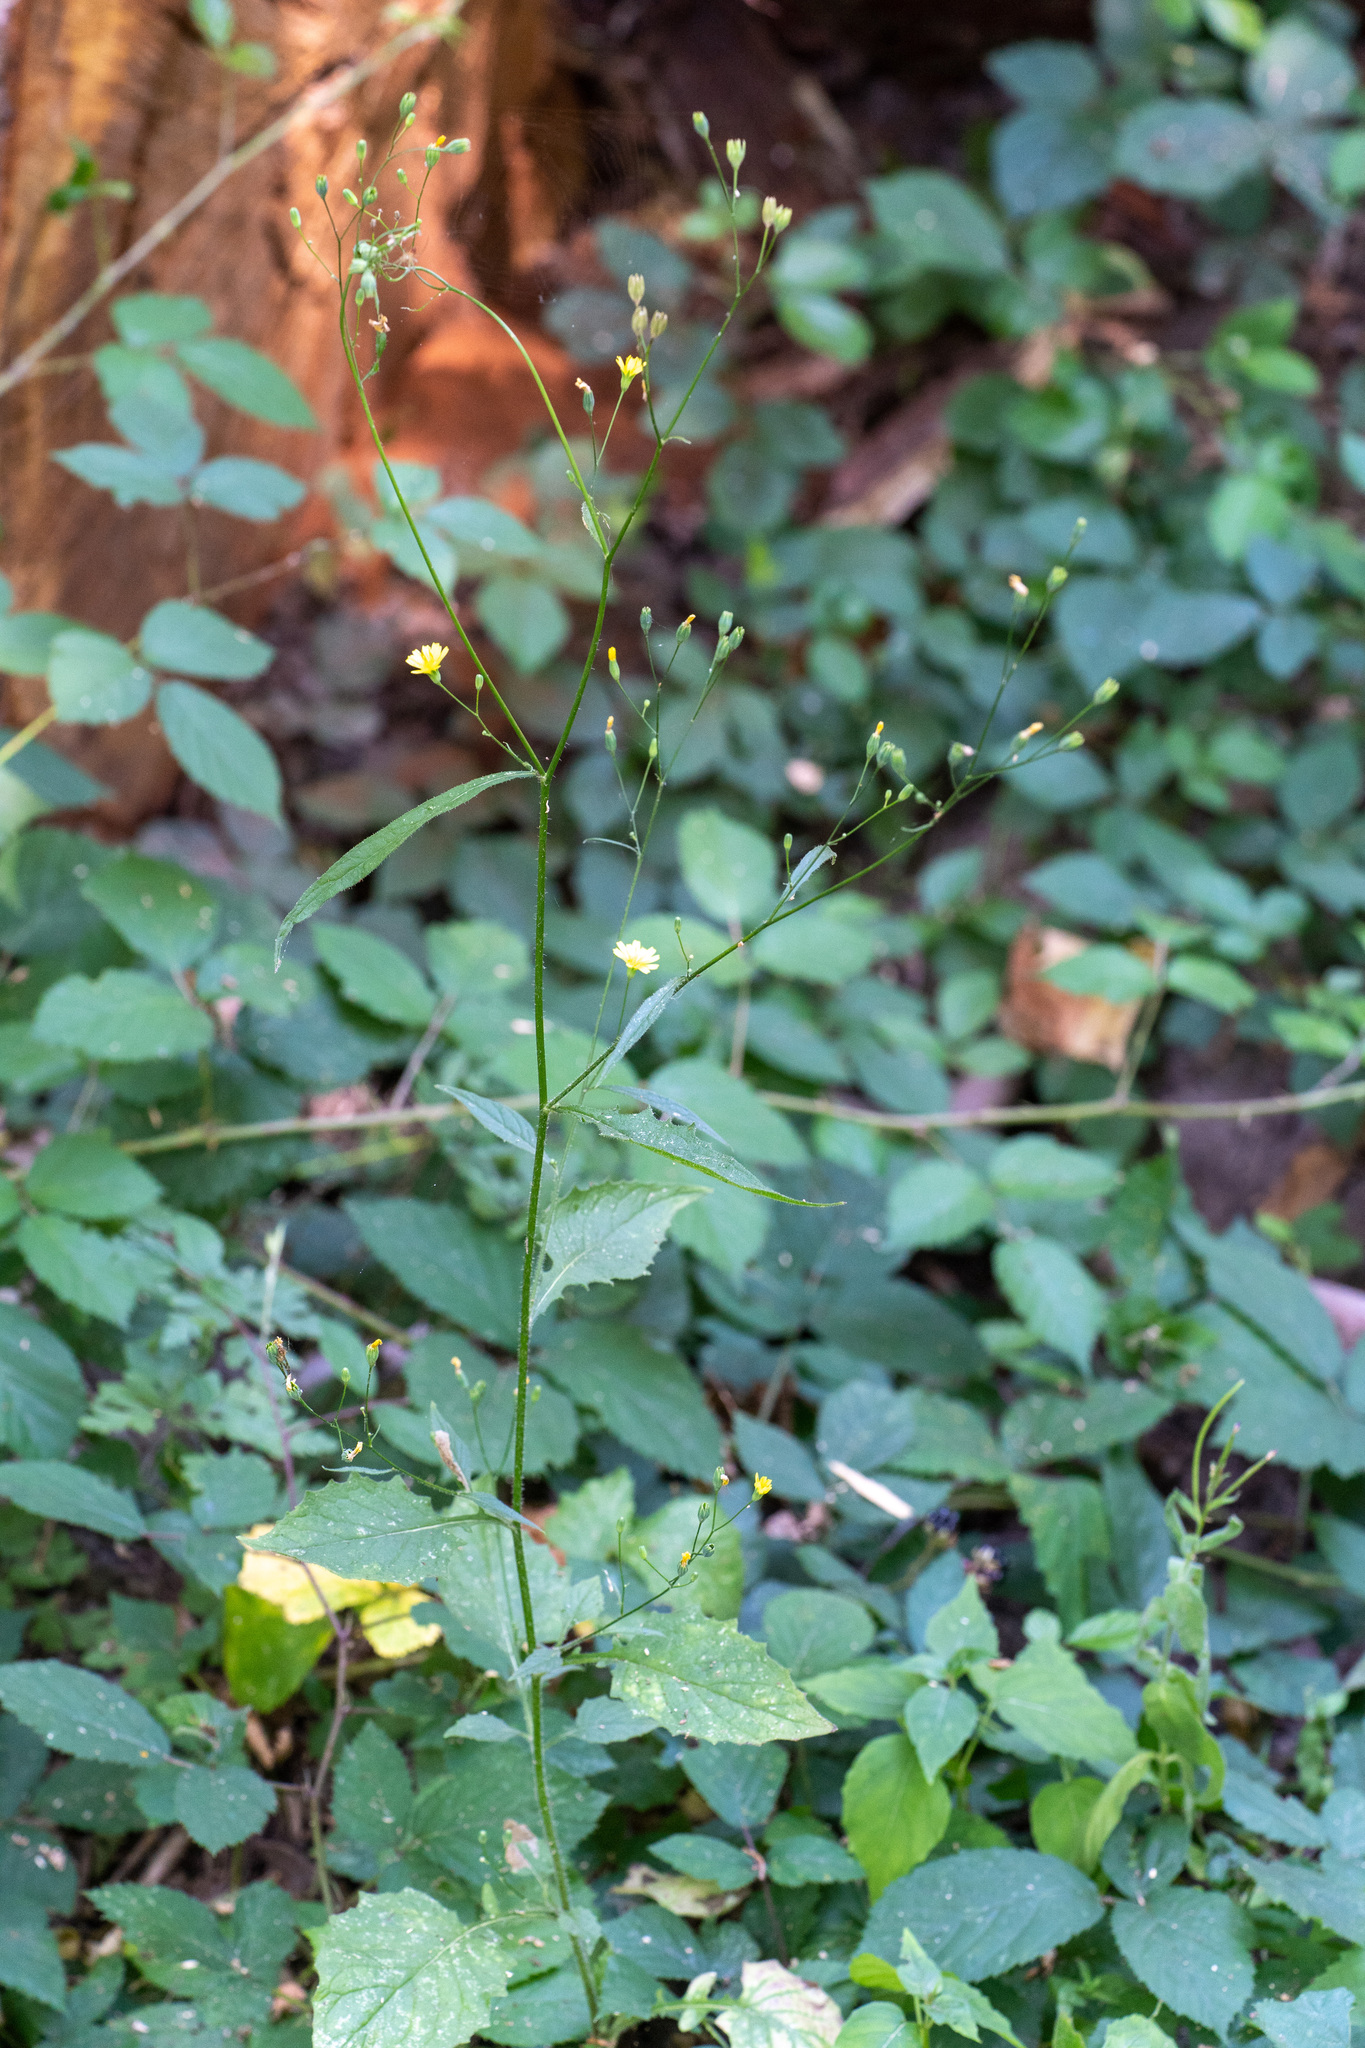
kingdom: Plantae
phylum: Tracheophyta
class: Magnoliopsida
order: Asterales
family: Asteraceae
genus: Lapsana
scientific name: Lapsana communis
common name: Nipplewort
